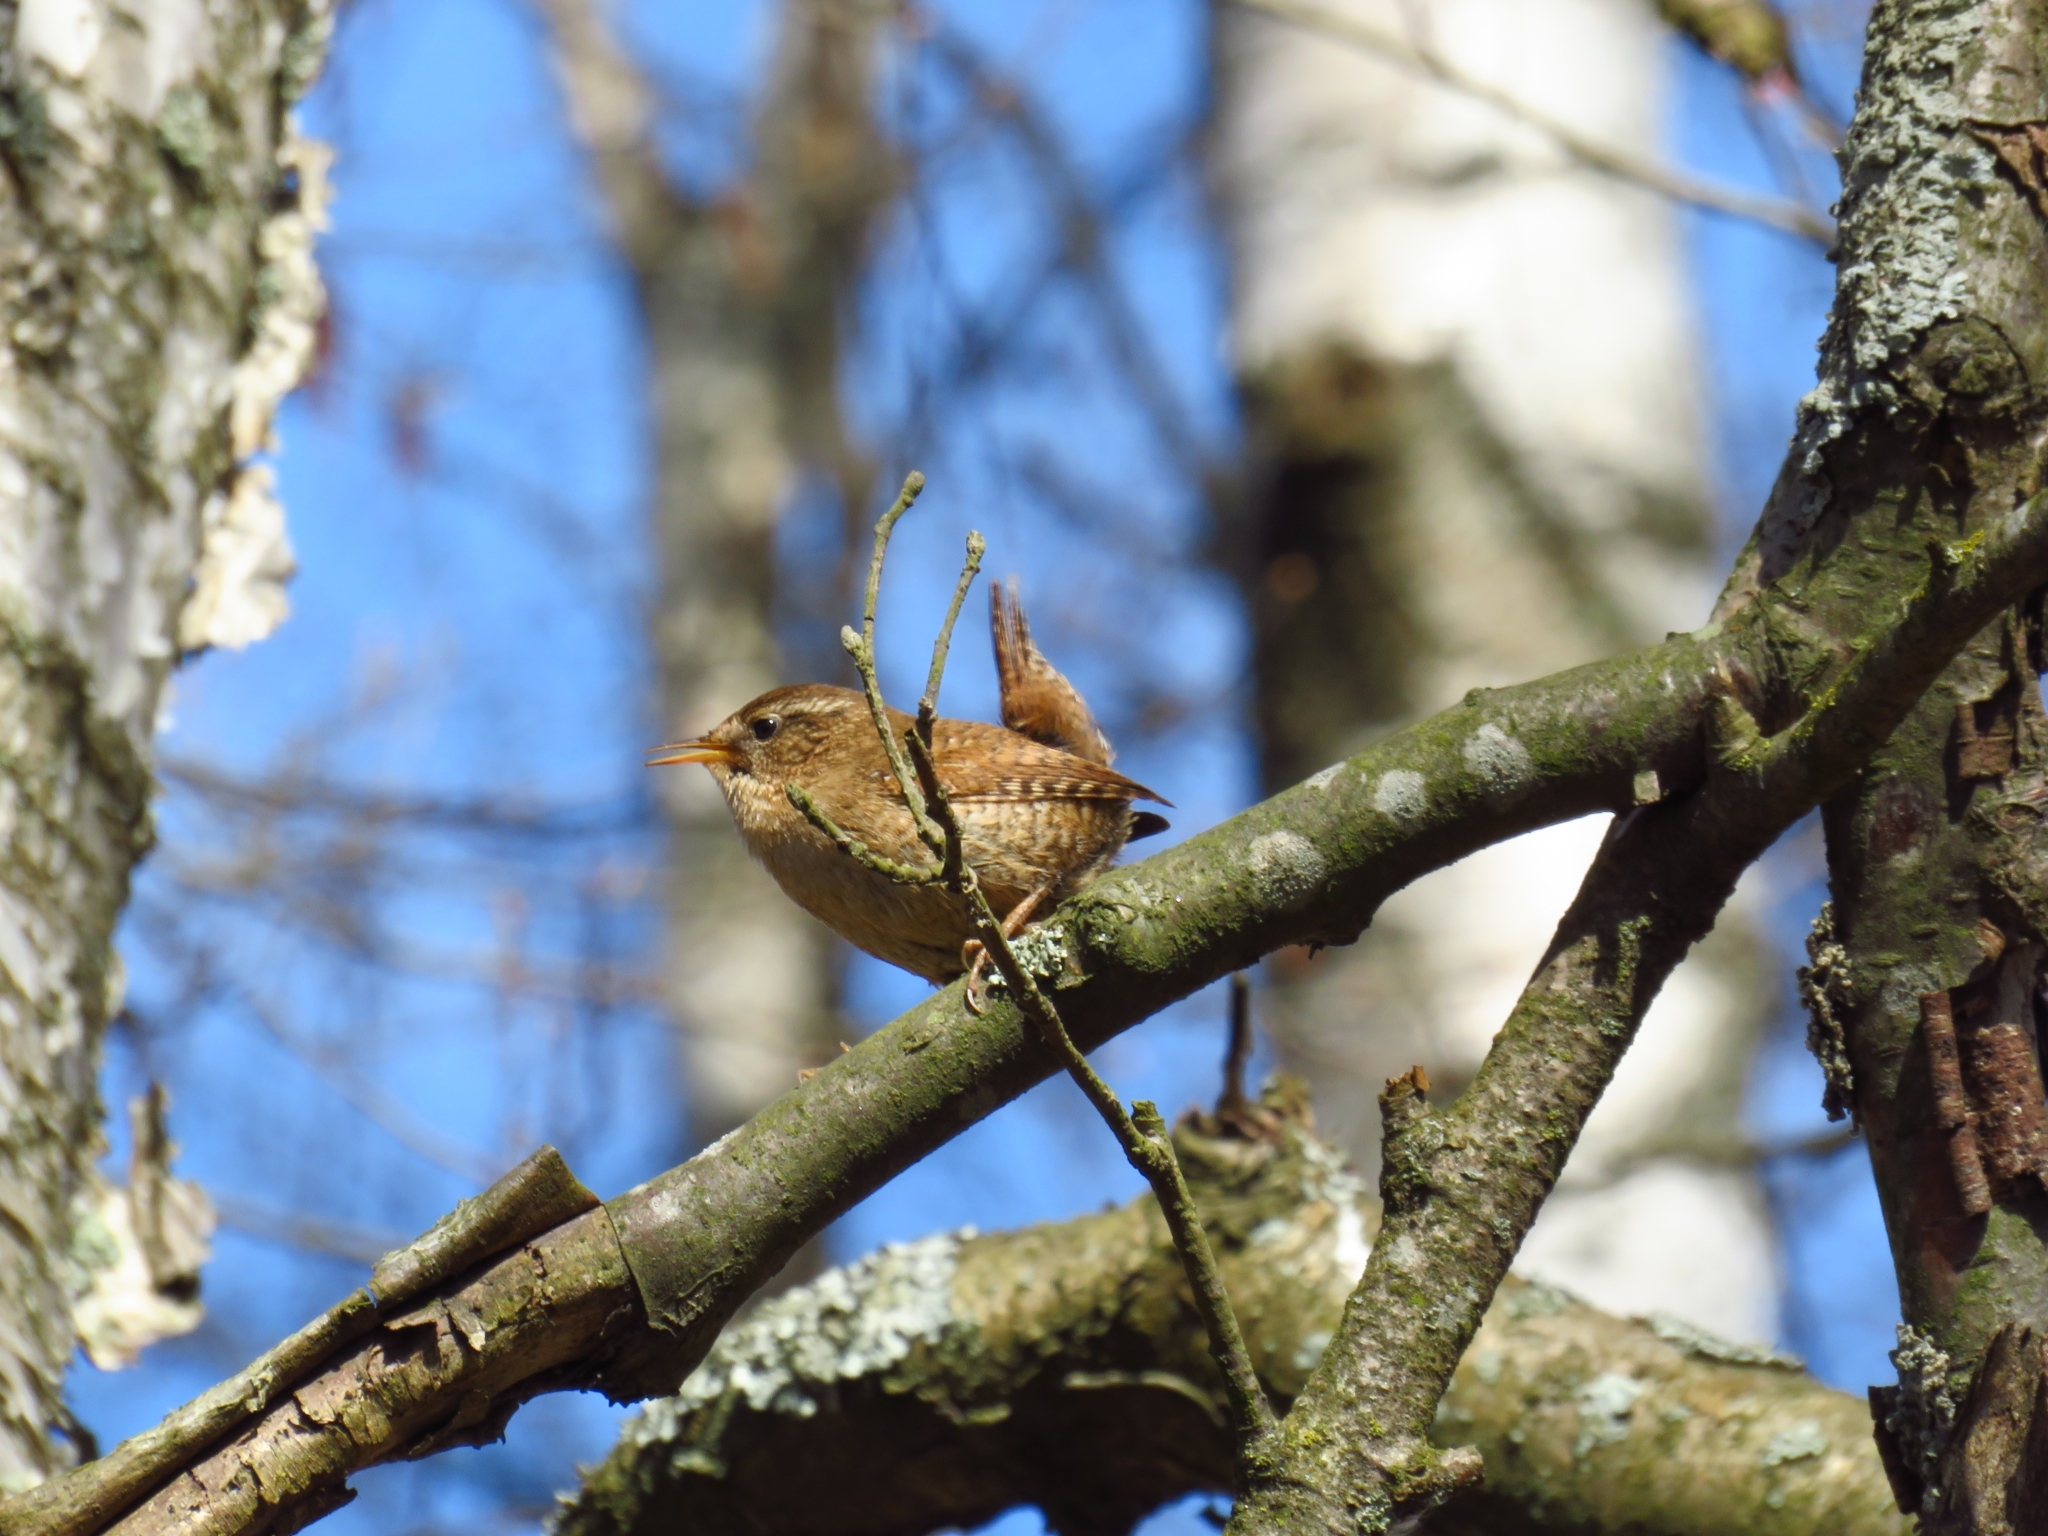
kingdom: Animalia
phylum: Chordata
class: Aves
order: Passeriformes
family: Troglodytidae
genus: Troglodytes
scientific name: Troglodytes troglodytes
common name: Eurasian wren
